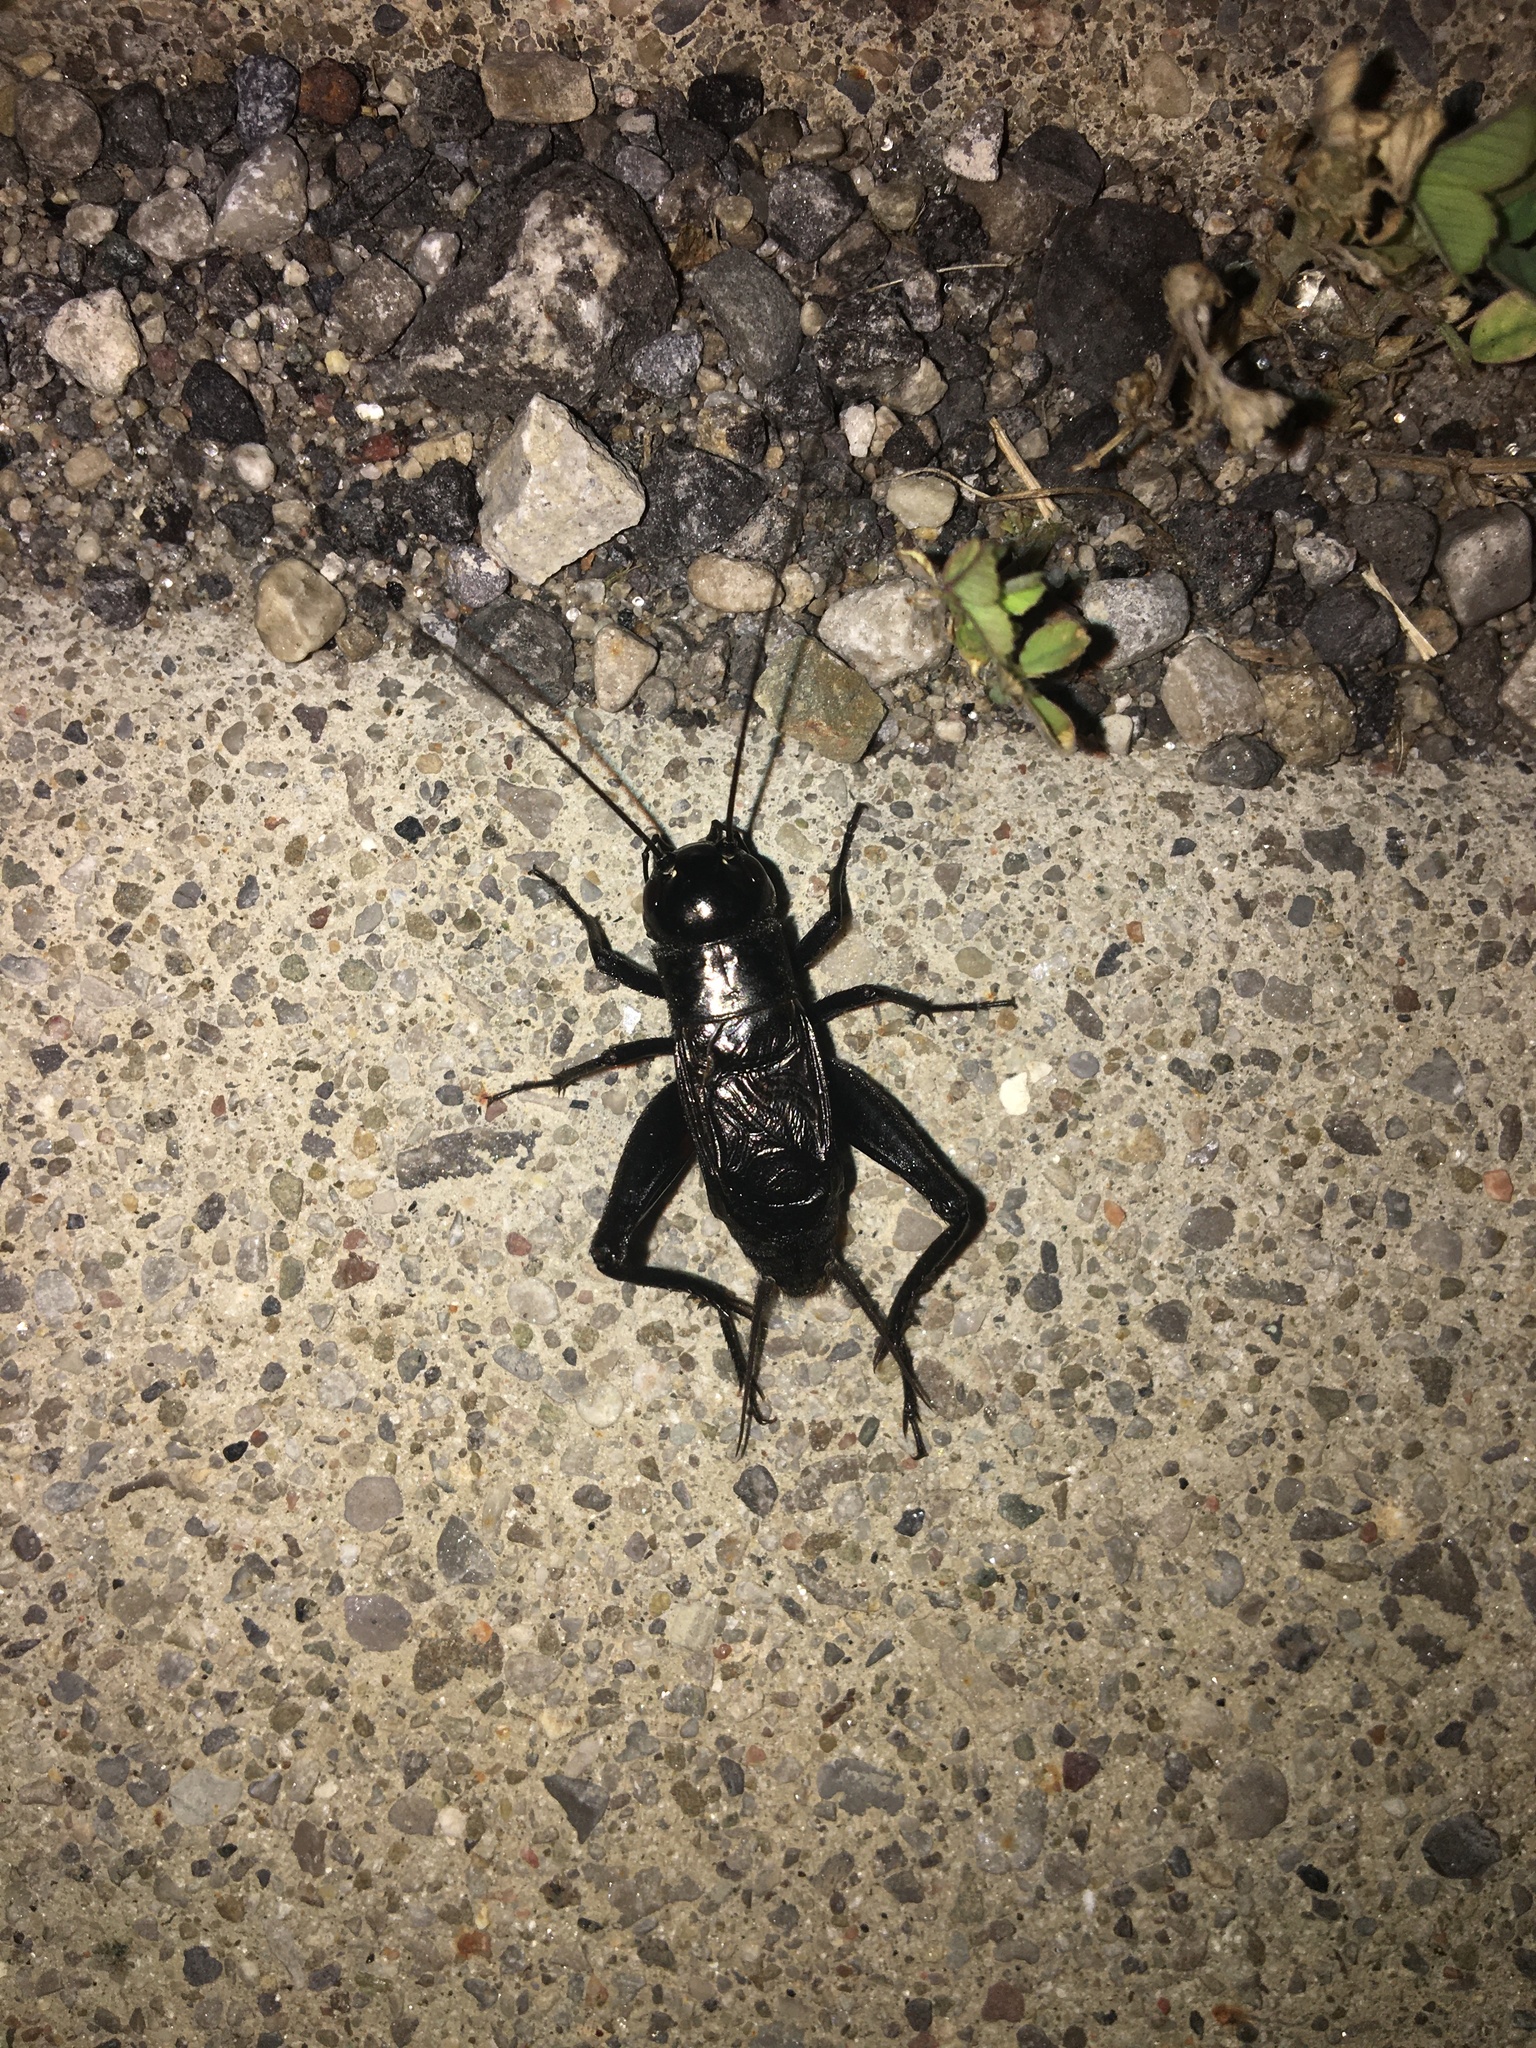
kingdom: Animalia
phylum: Arthropoda
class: Insecta
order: Orthoptera
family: Gryllidae
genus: Gryllus
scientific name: Gryllus pennsylvanicus
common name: Fall field cricket
